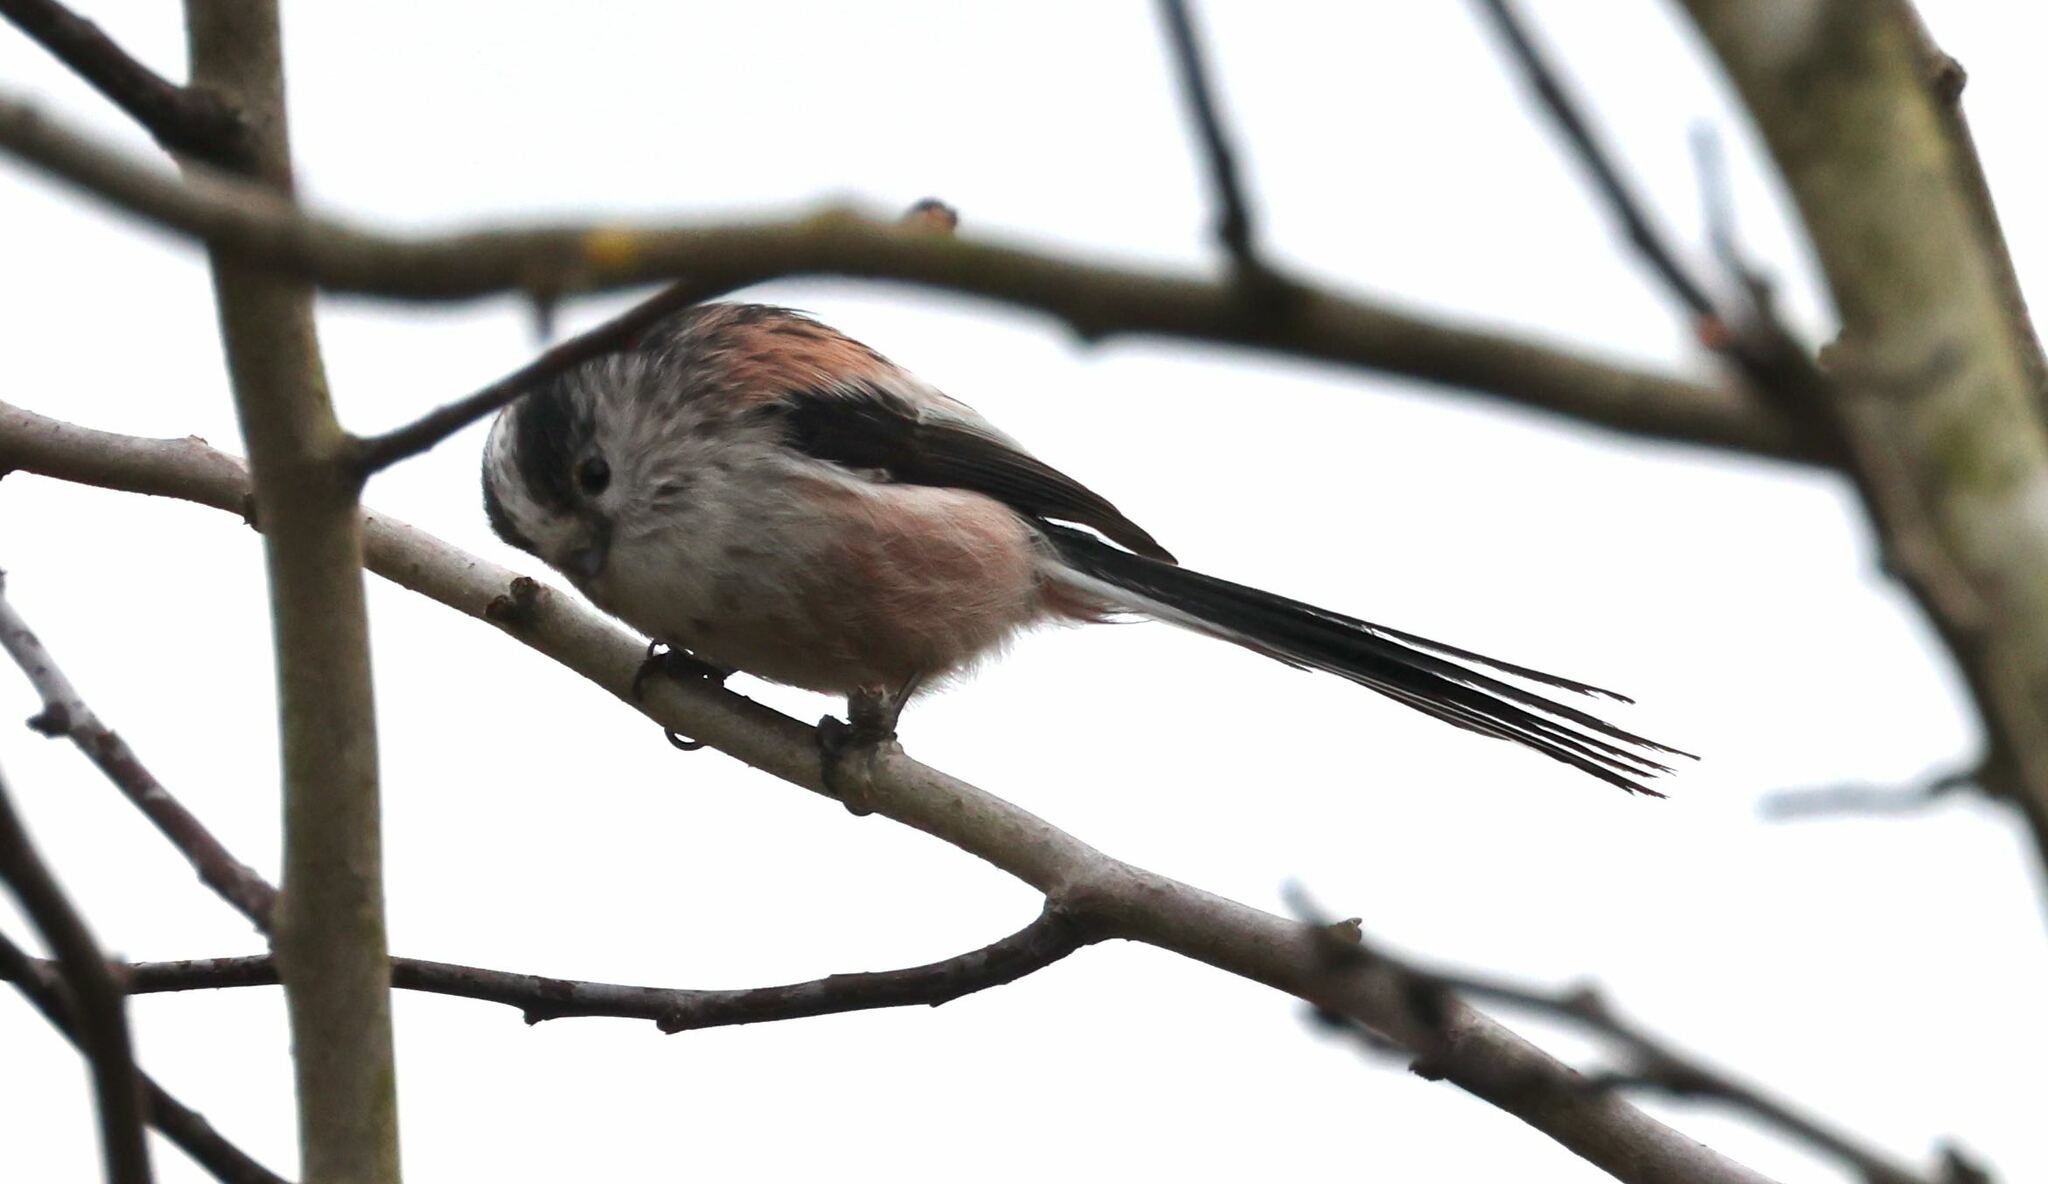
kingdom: Animalia
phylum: Chordata
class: Aves
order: Passeriformes
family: Aegithalidae
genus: Aegithalos
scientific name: Aegithalos caudatus
